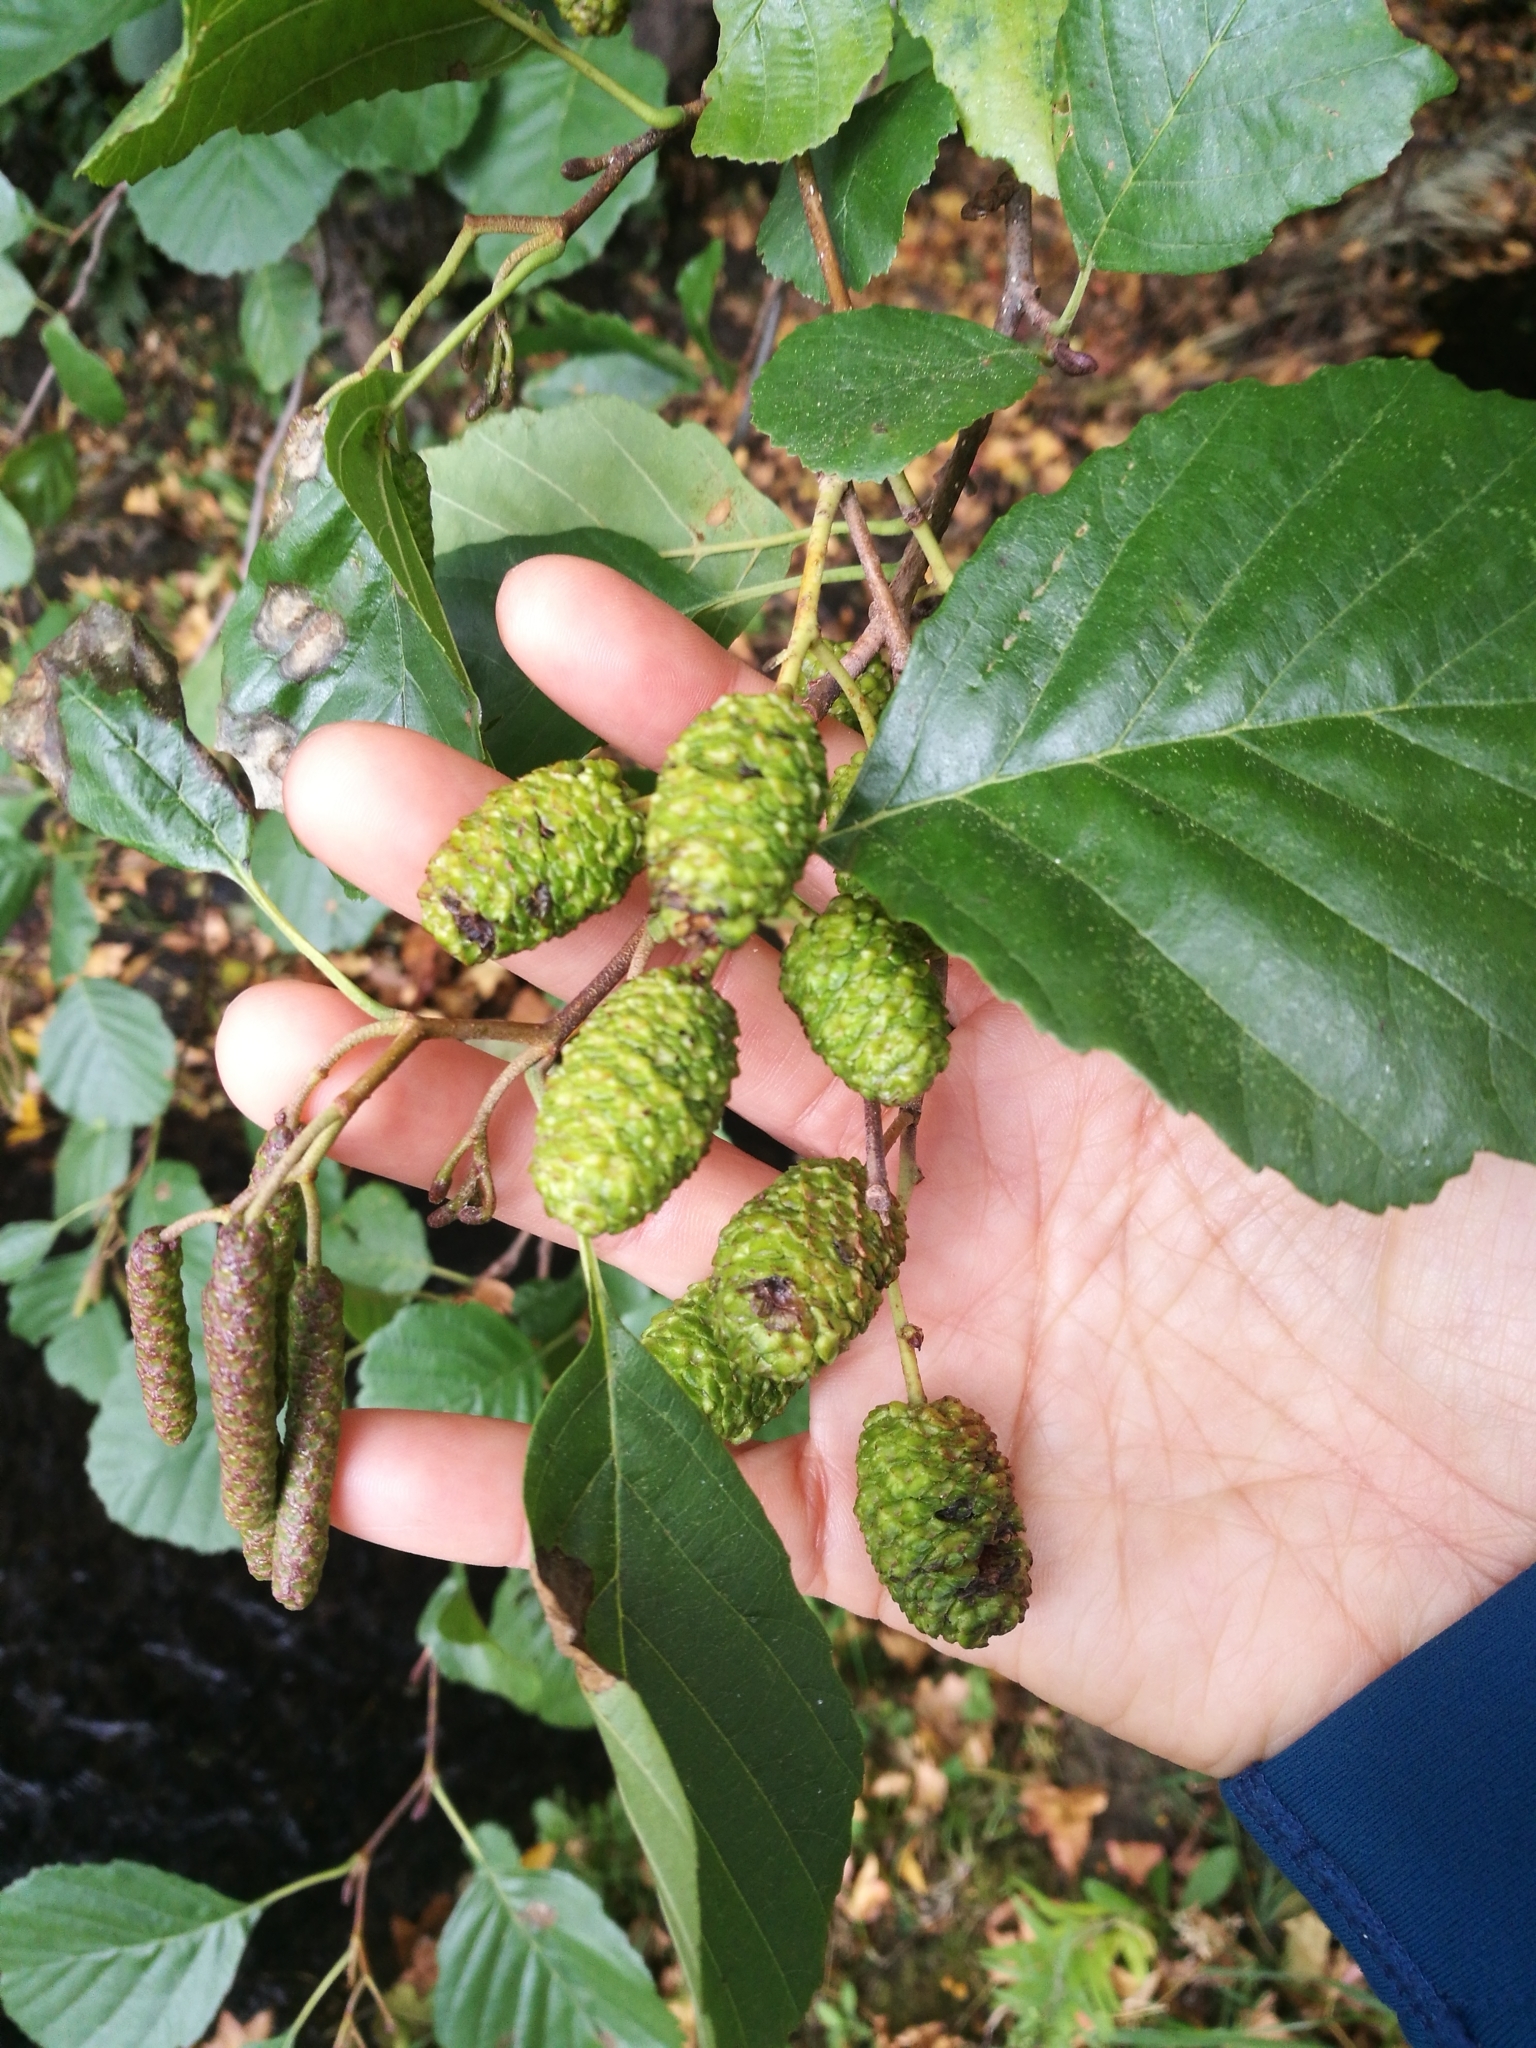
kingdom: Plantae
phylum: Tracheophyta
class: Magnoliopsida
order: Fagales
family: Betulaceae
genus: Alnus
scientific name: Alnus glutinosa
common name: Black alder
